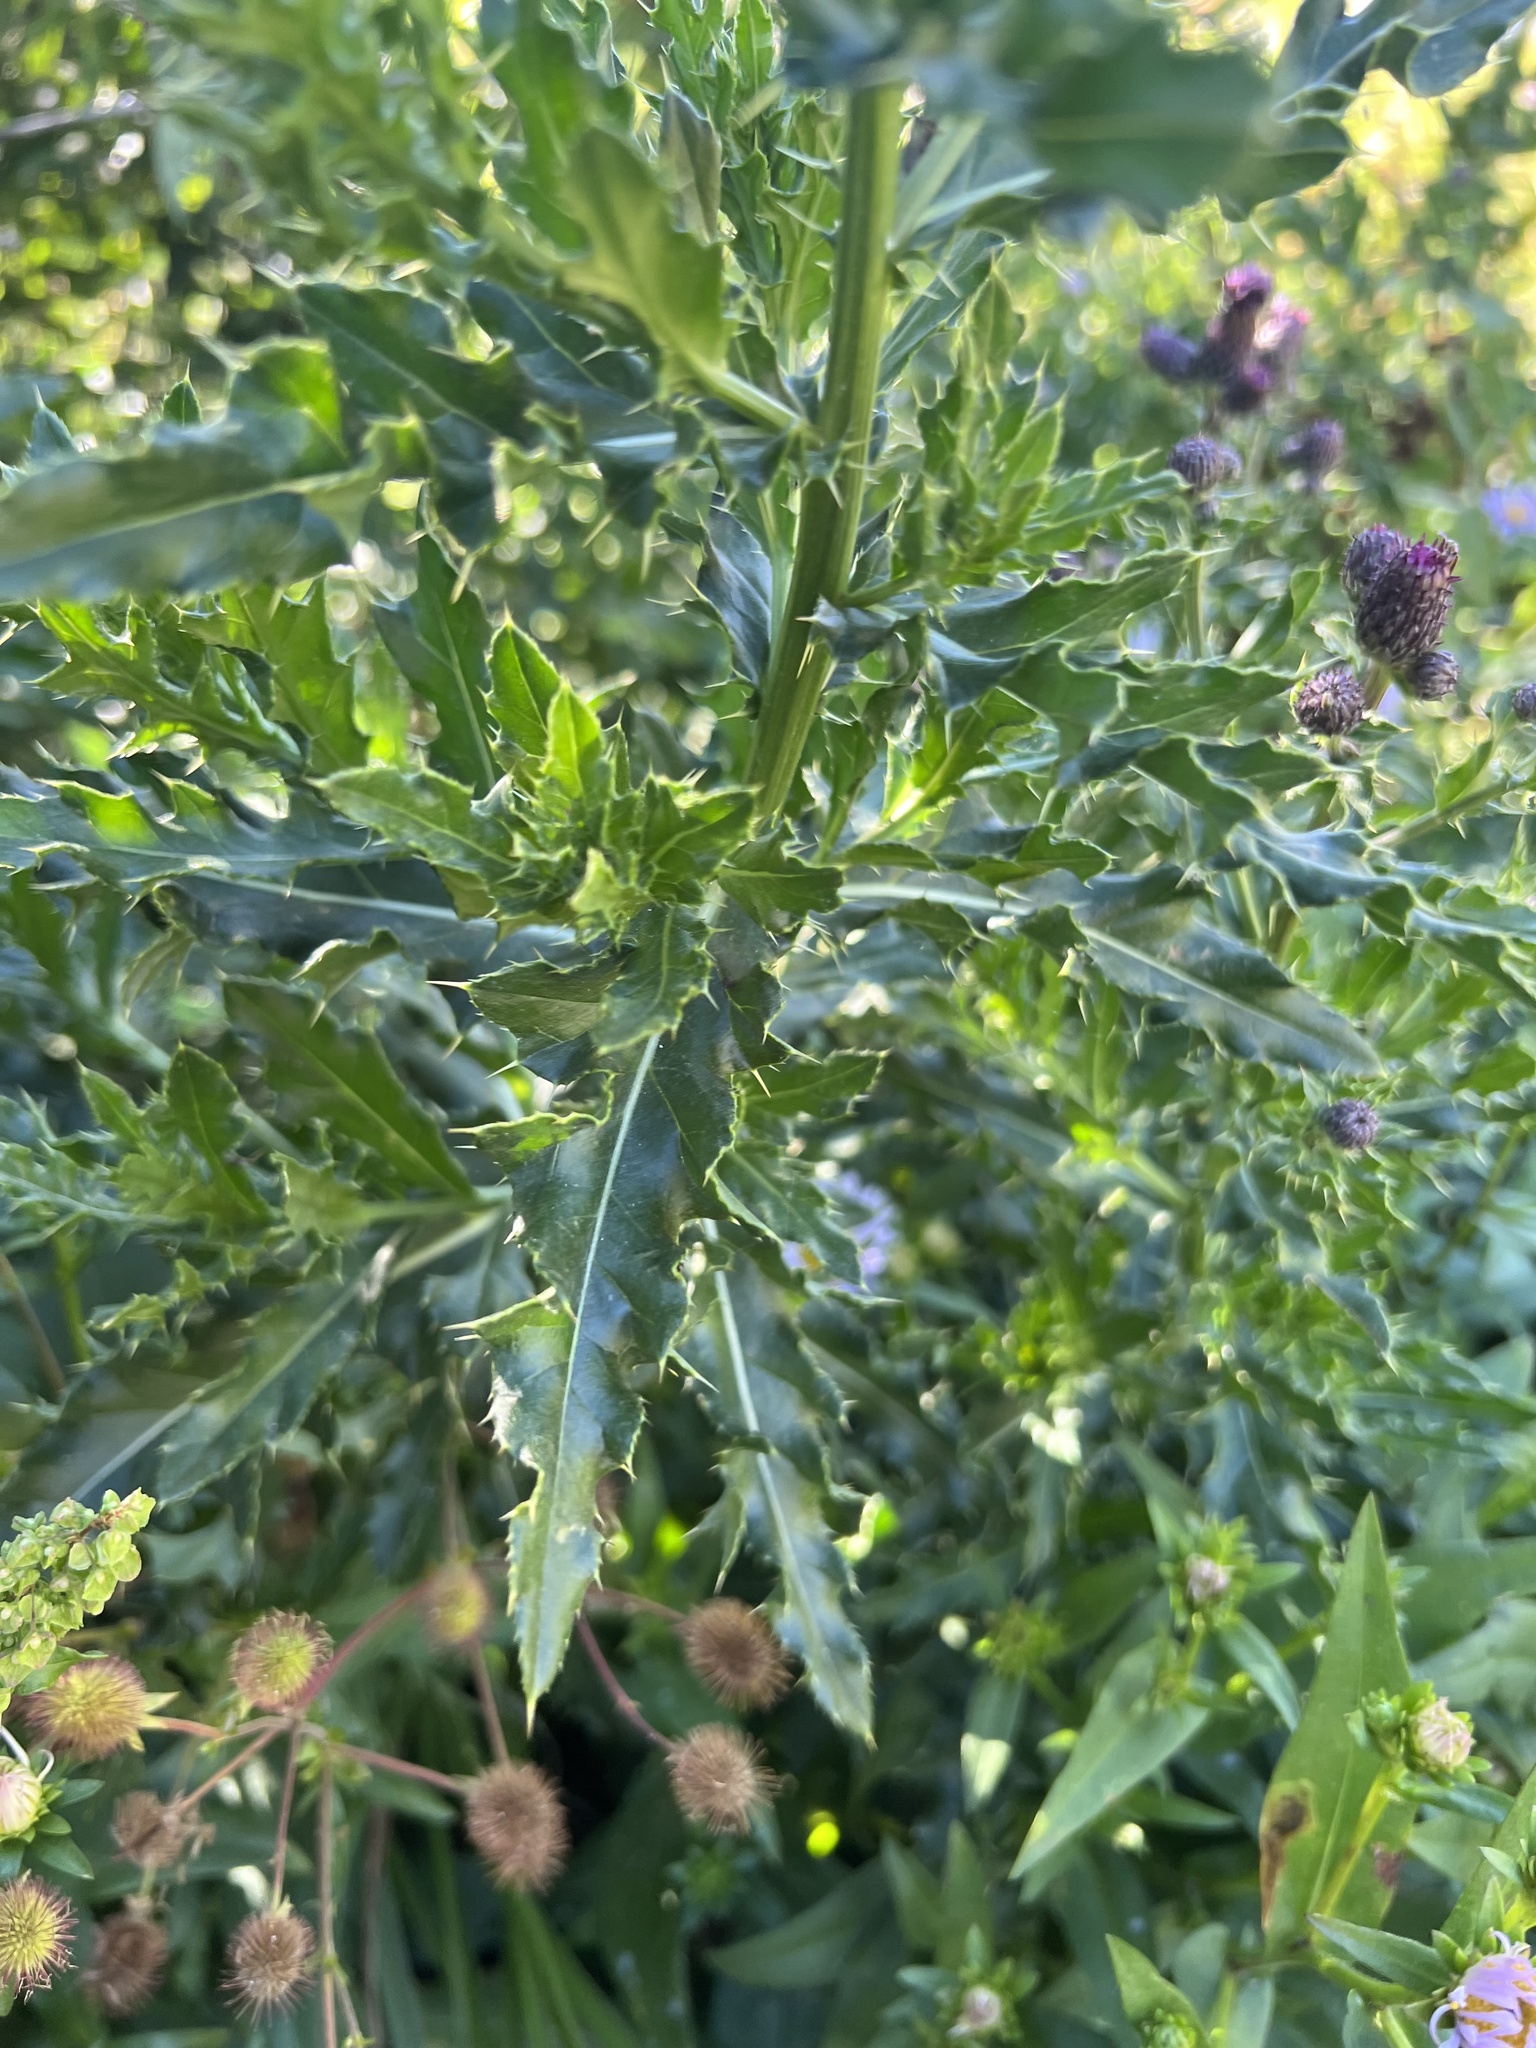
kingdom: Plantae
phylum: Tracheophyta
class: Magnoliopsida
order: Asterales
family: Asteraceae
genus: Cirsium
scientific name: Cirsium arvense
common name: Creeping thistle
